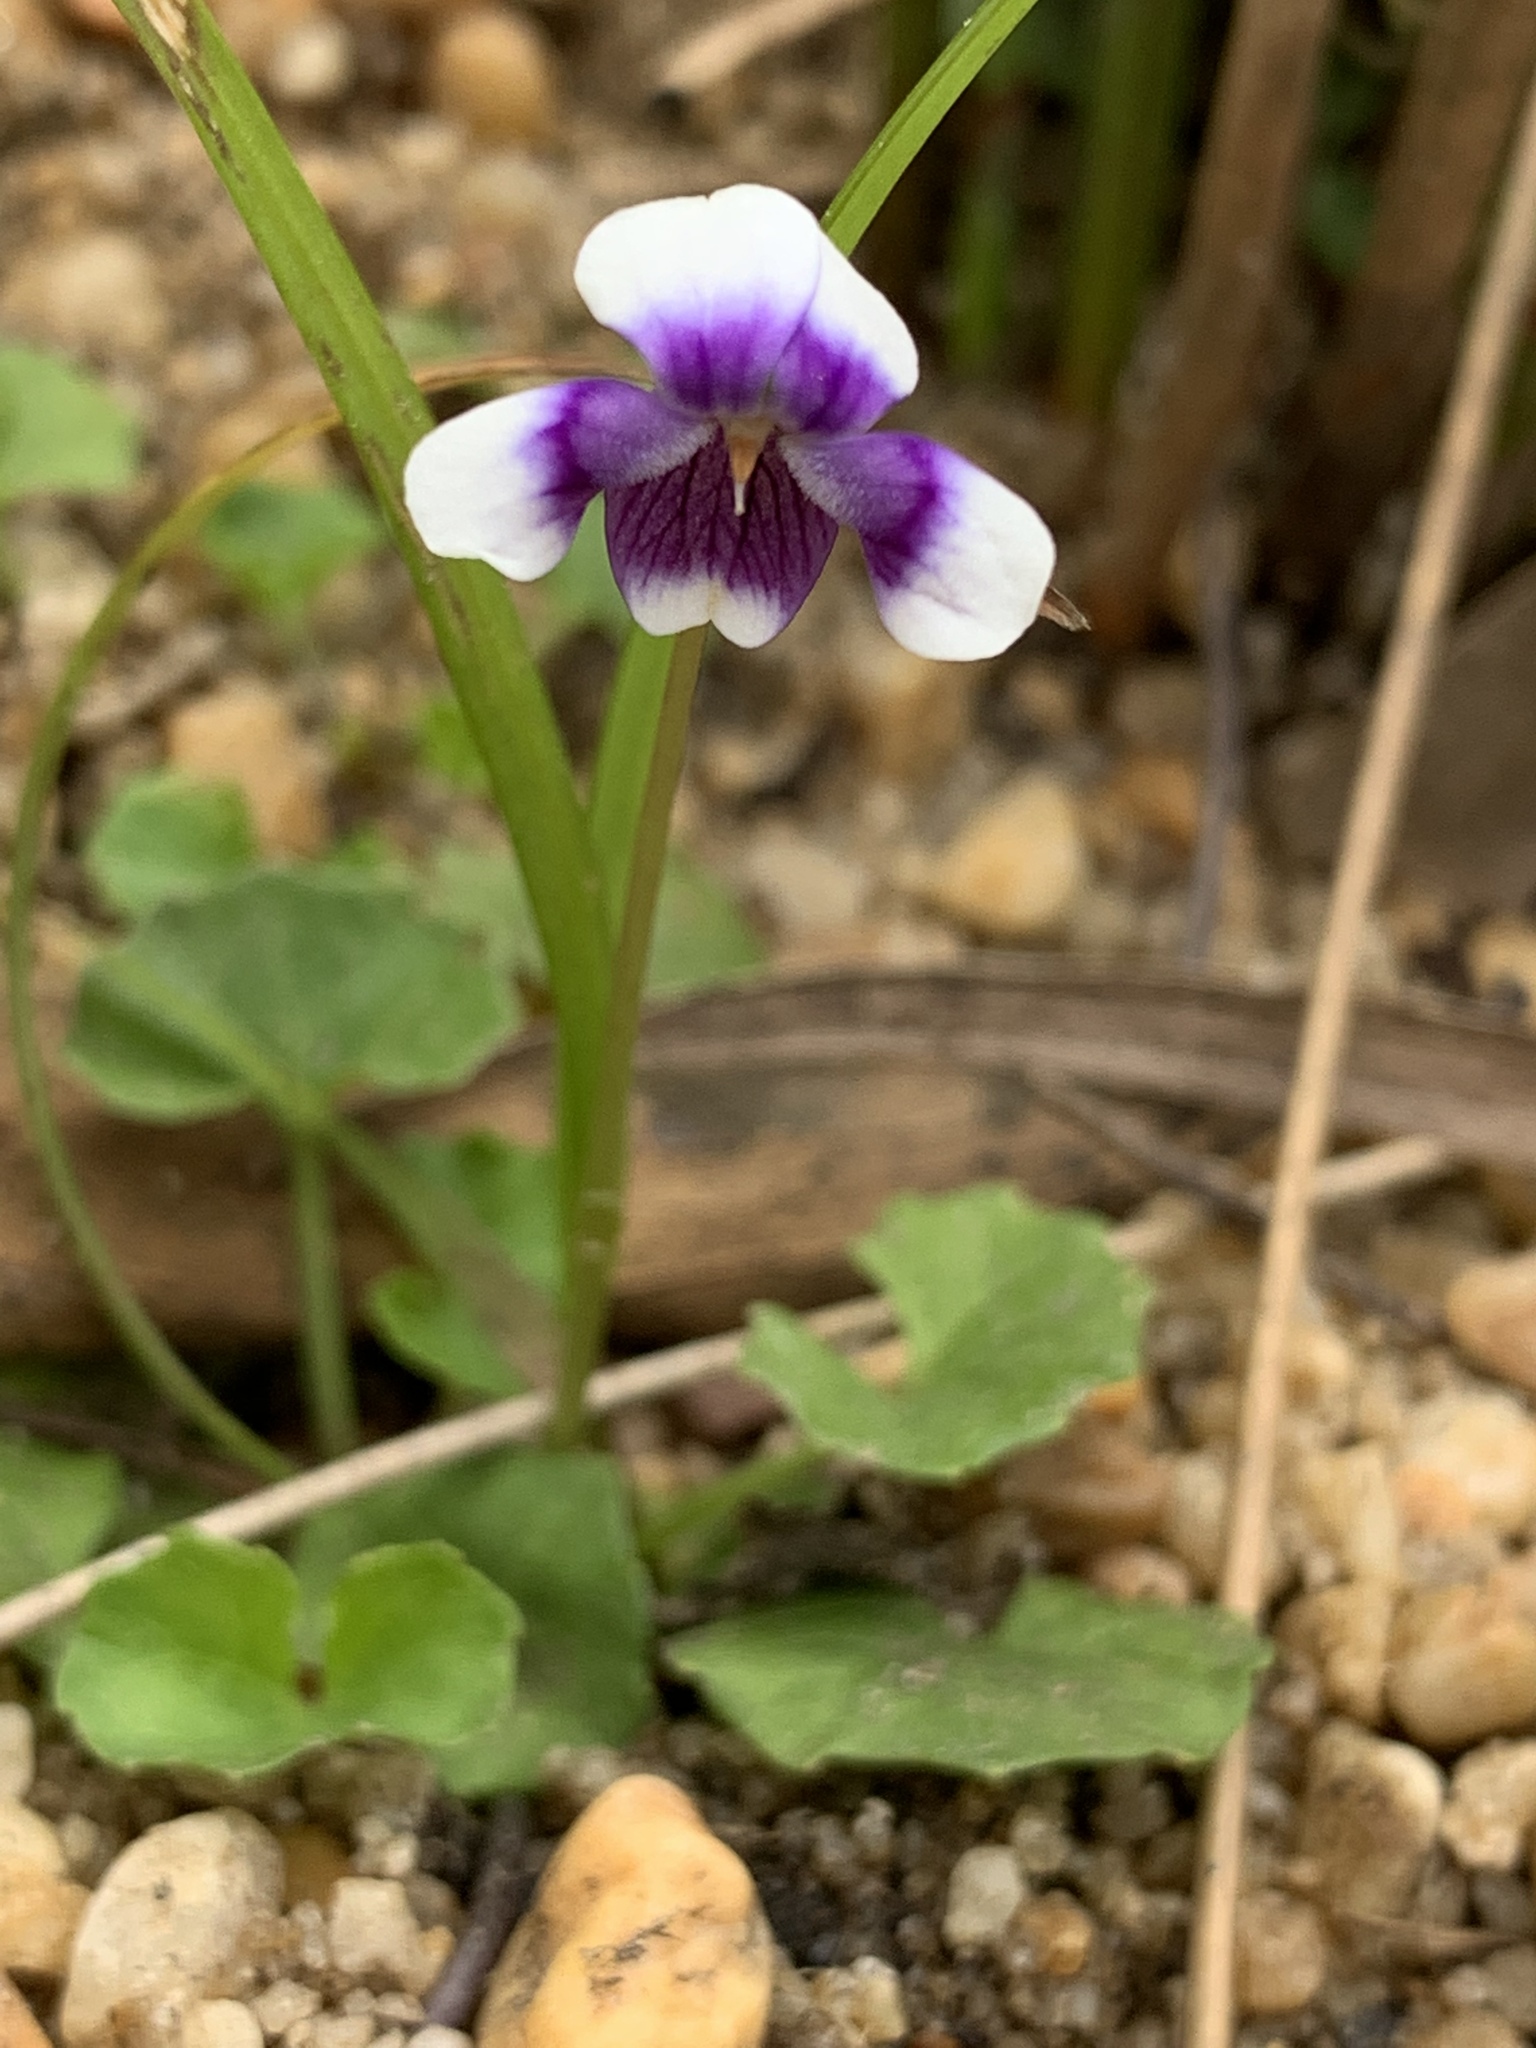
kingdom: Plantae
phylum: Tracheophyta
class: Magnoliopsida
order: Malpighiales
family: Violaceae
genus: Viola
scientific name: Viola hederacea
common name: Australian violet
